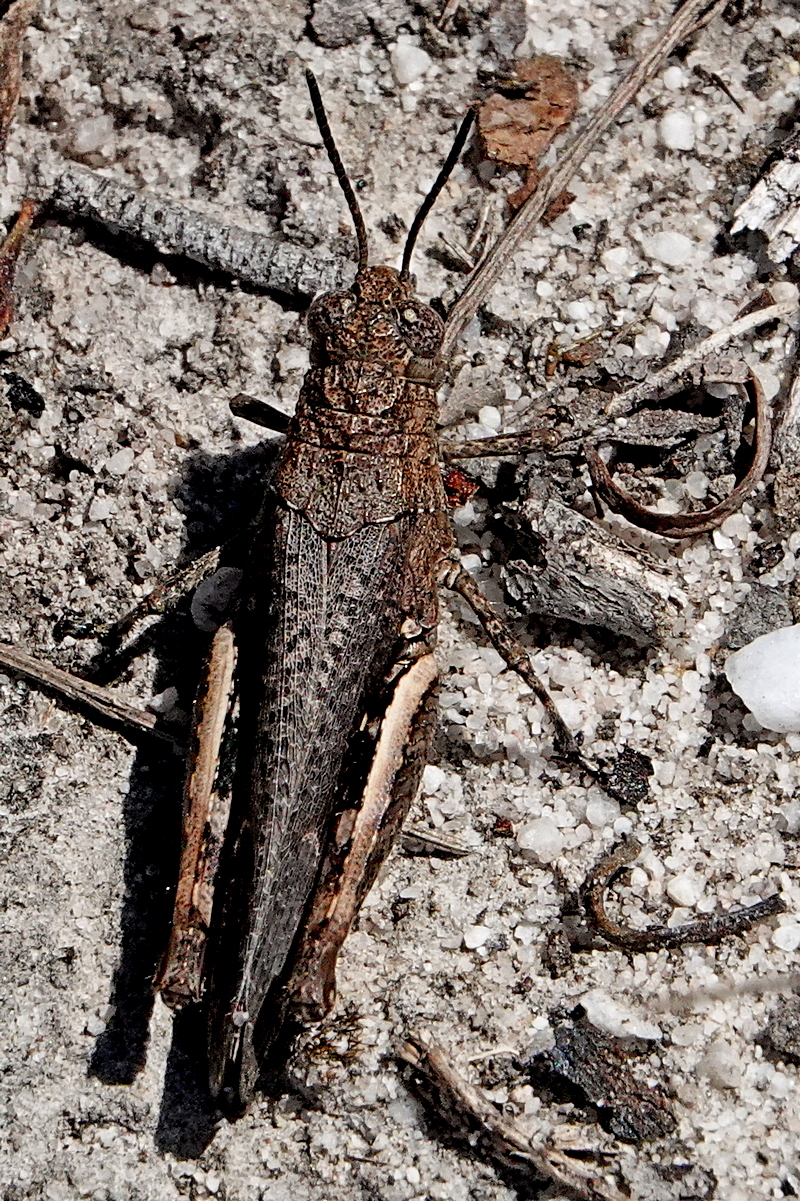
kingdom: Animalia
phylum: Arthropoda
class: Insecta
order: Orthoptera
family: Acrididae
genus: Cirphula
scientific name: Cirphula pyrrhocnemis
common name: Variable cirphula
